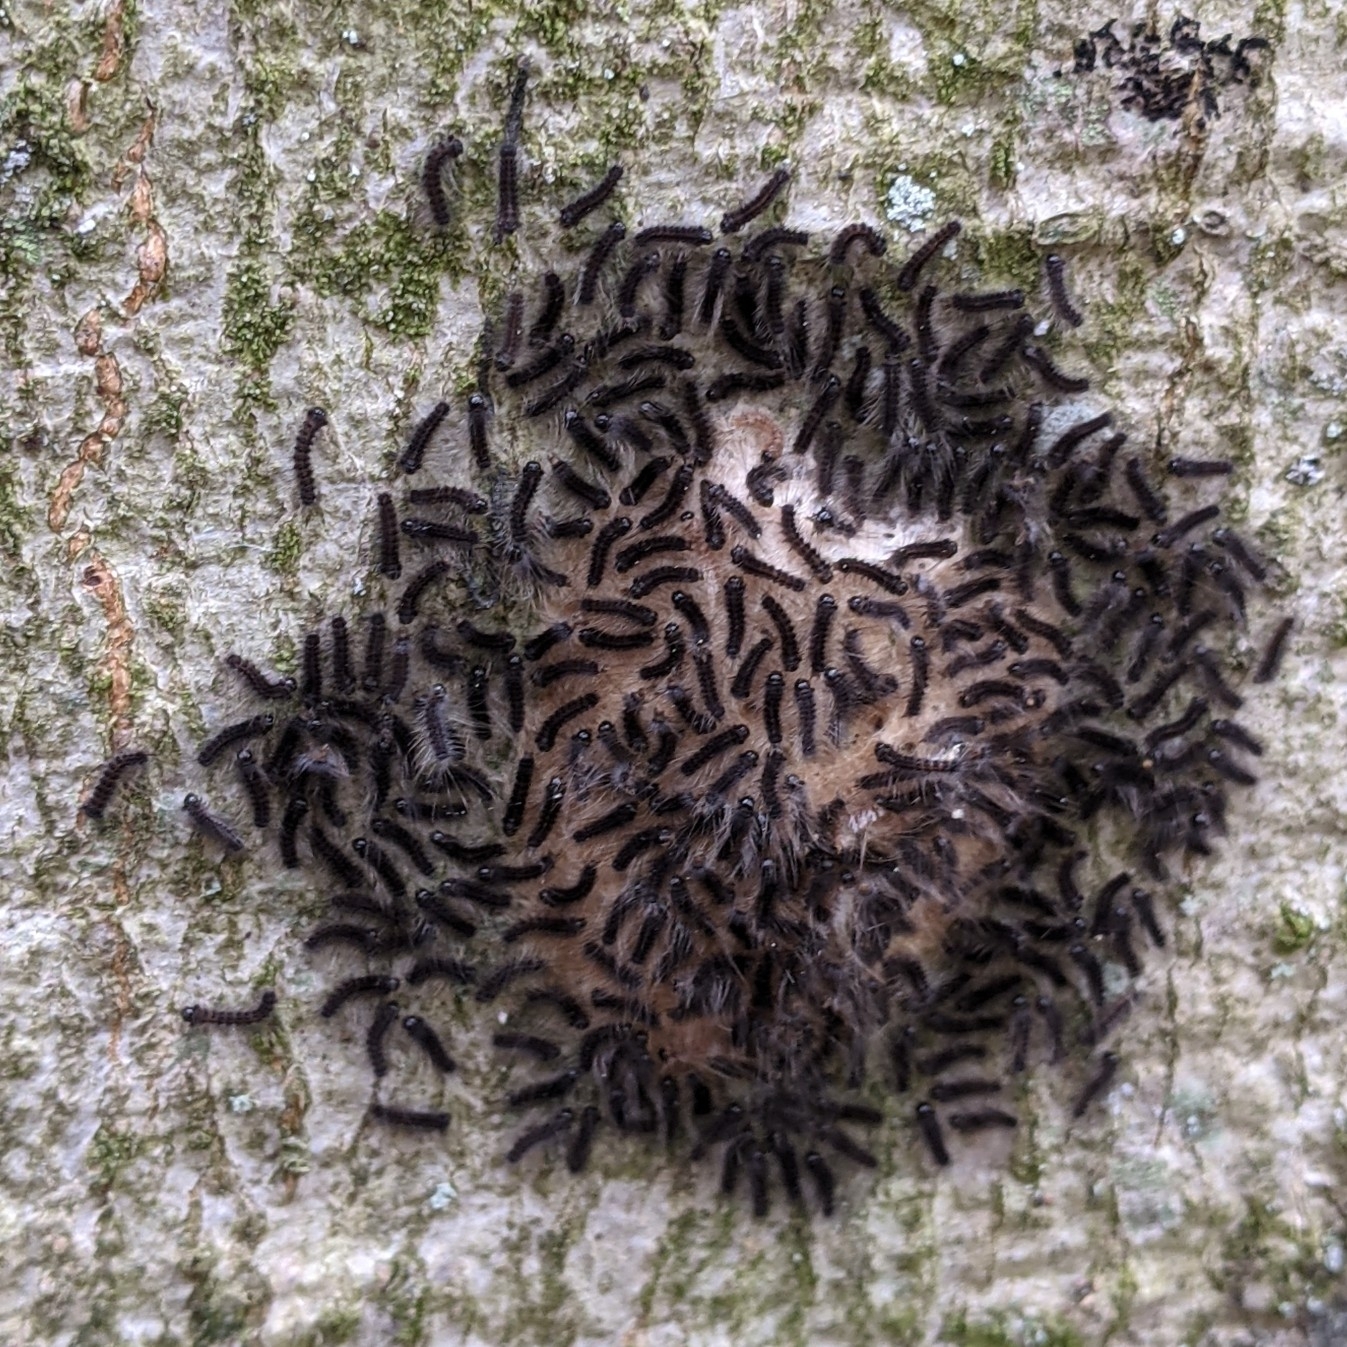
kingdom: Animalia
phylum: Arthropoda
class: Insecta
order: Lepidoptera
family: Erebidae
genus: Lymantria
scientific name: Lymantria dispar
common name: Gypsy moth
